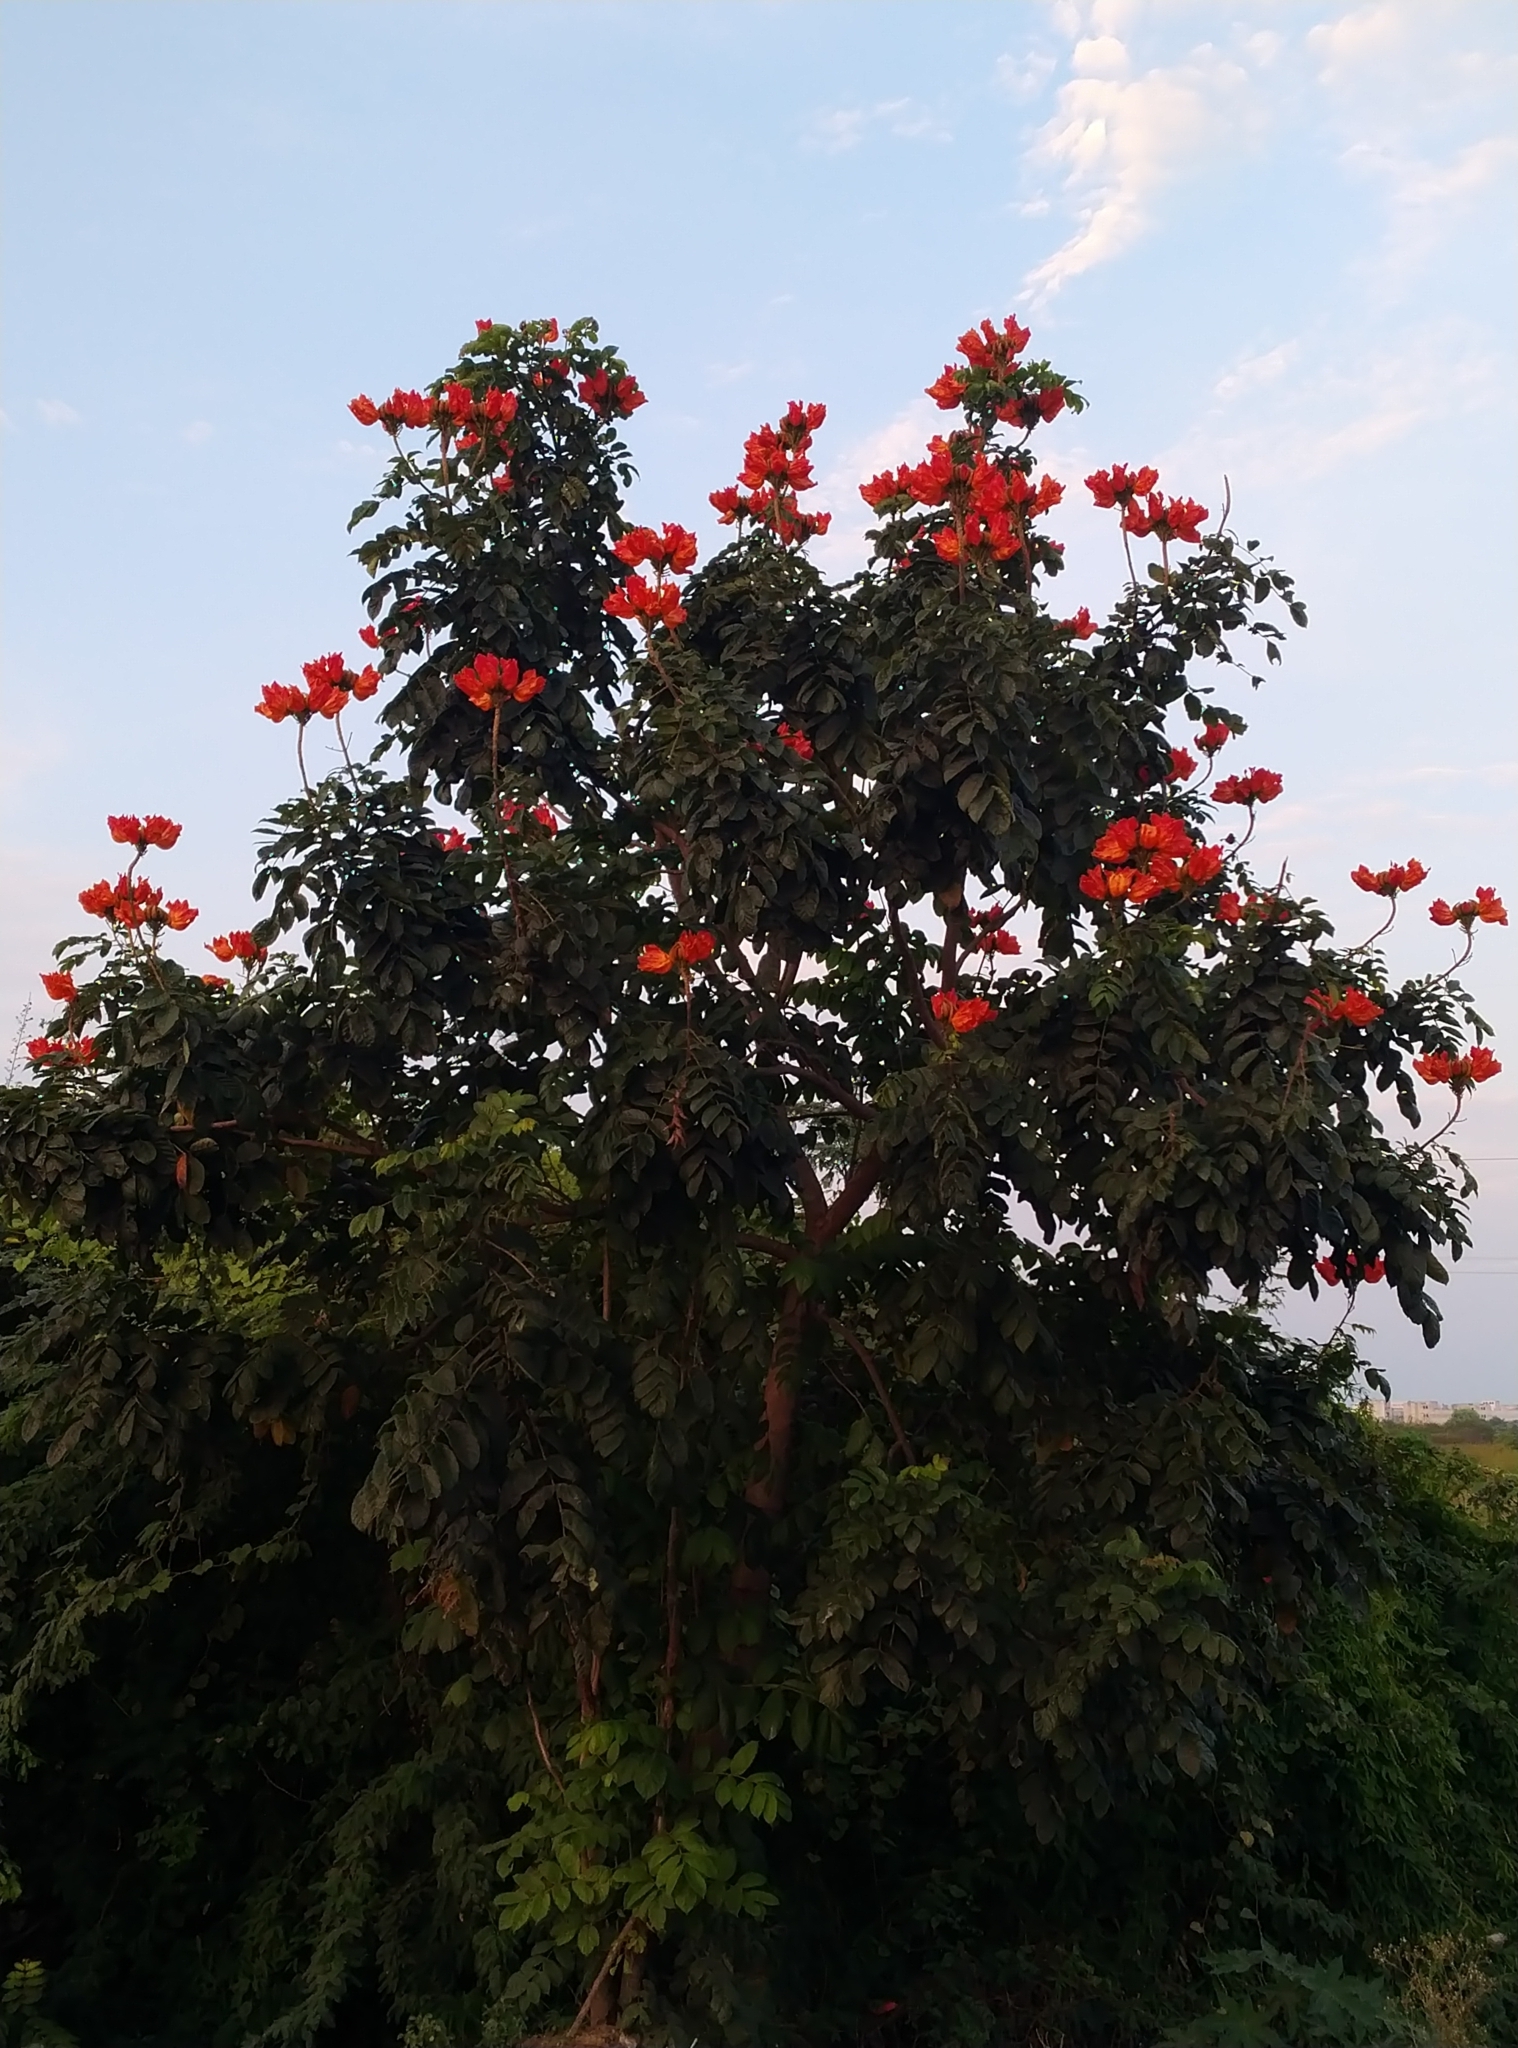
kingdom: Plantae
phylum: Tracheophyta
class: Magnoliopsida
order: Lamiales
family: Bignoniaceae
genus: Spathodea
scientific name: Spathodea campanulata
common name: African tuliptree
